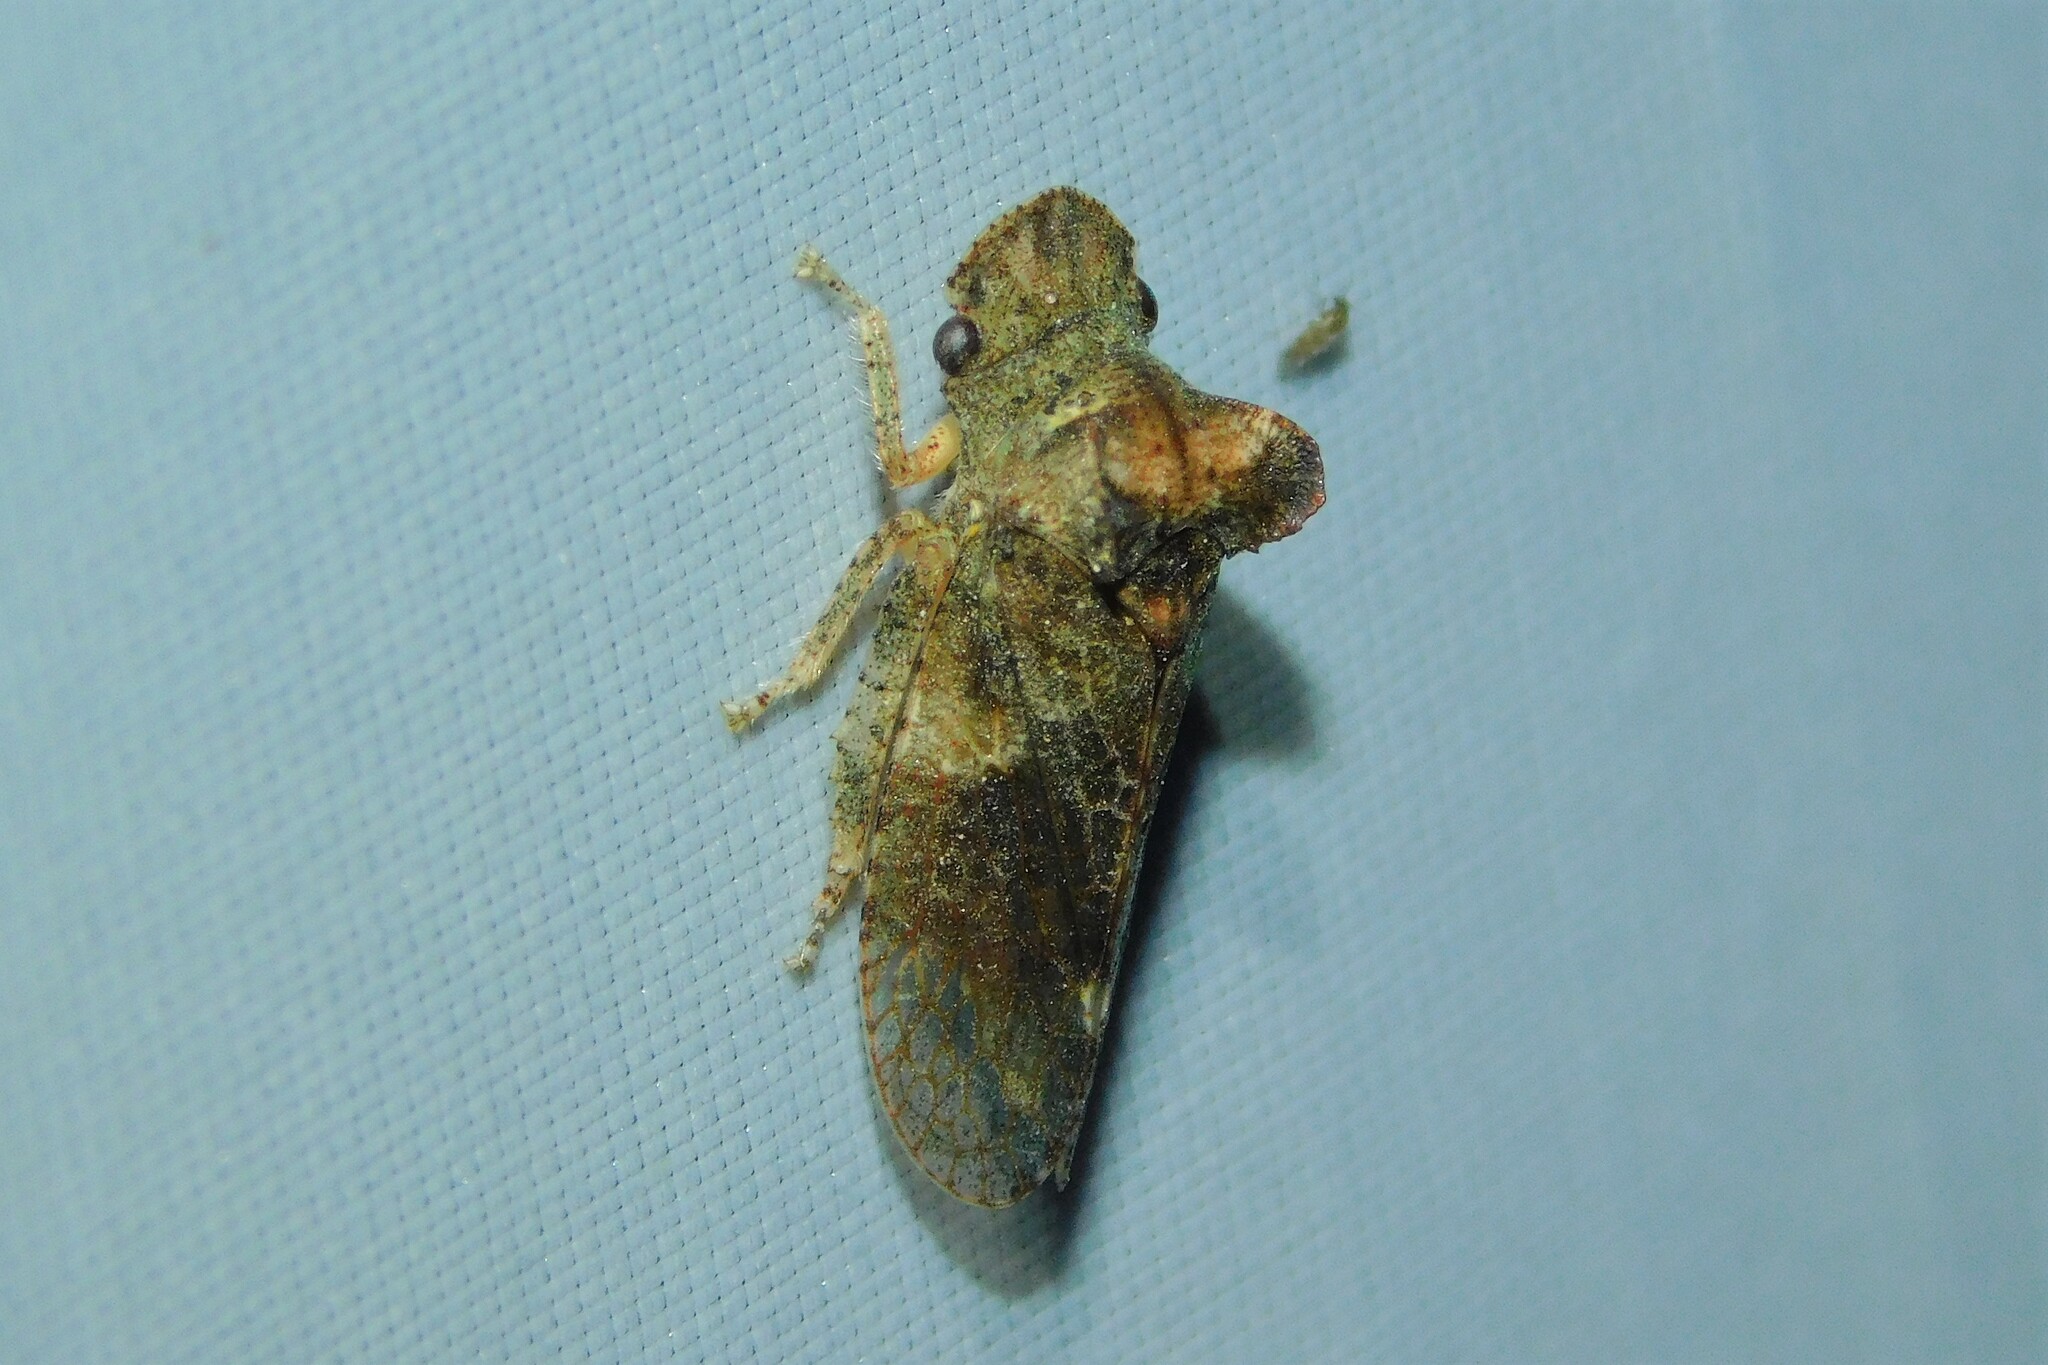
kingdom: Animalia
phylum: Arthropoda
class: Insecta
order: Hemiptera
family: Cicadellidae
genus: Ledra
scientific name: Ledra aurita
